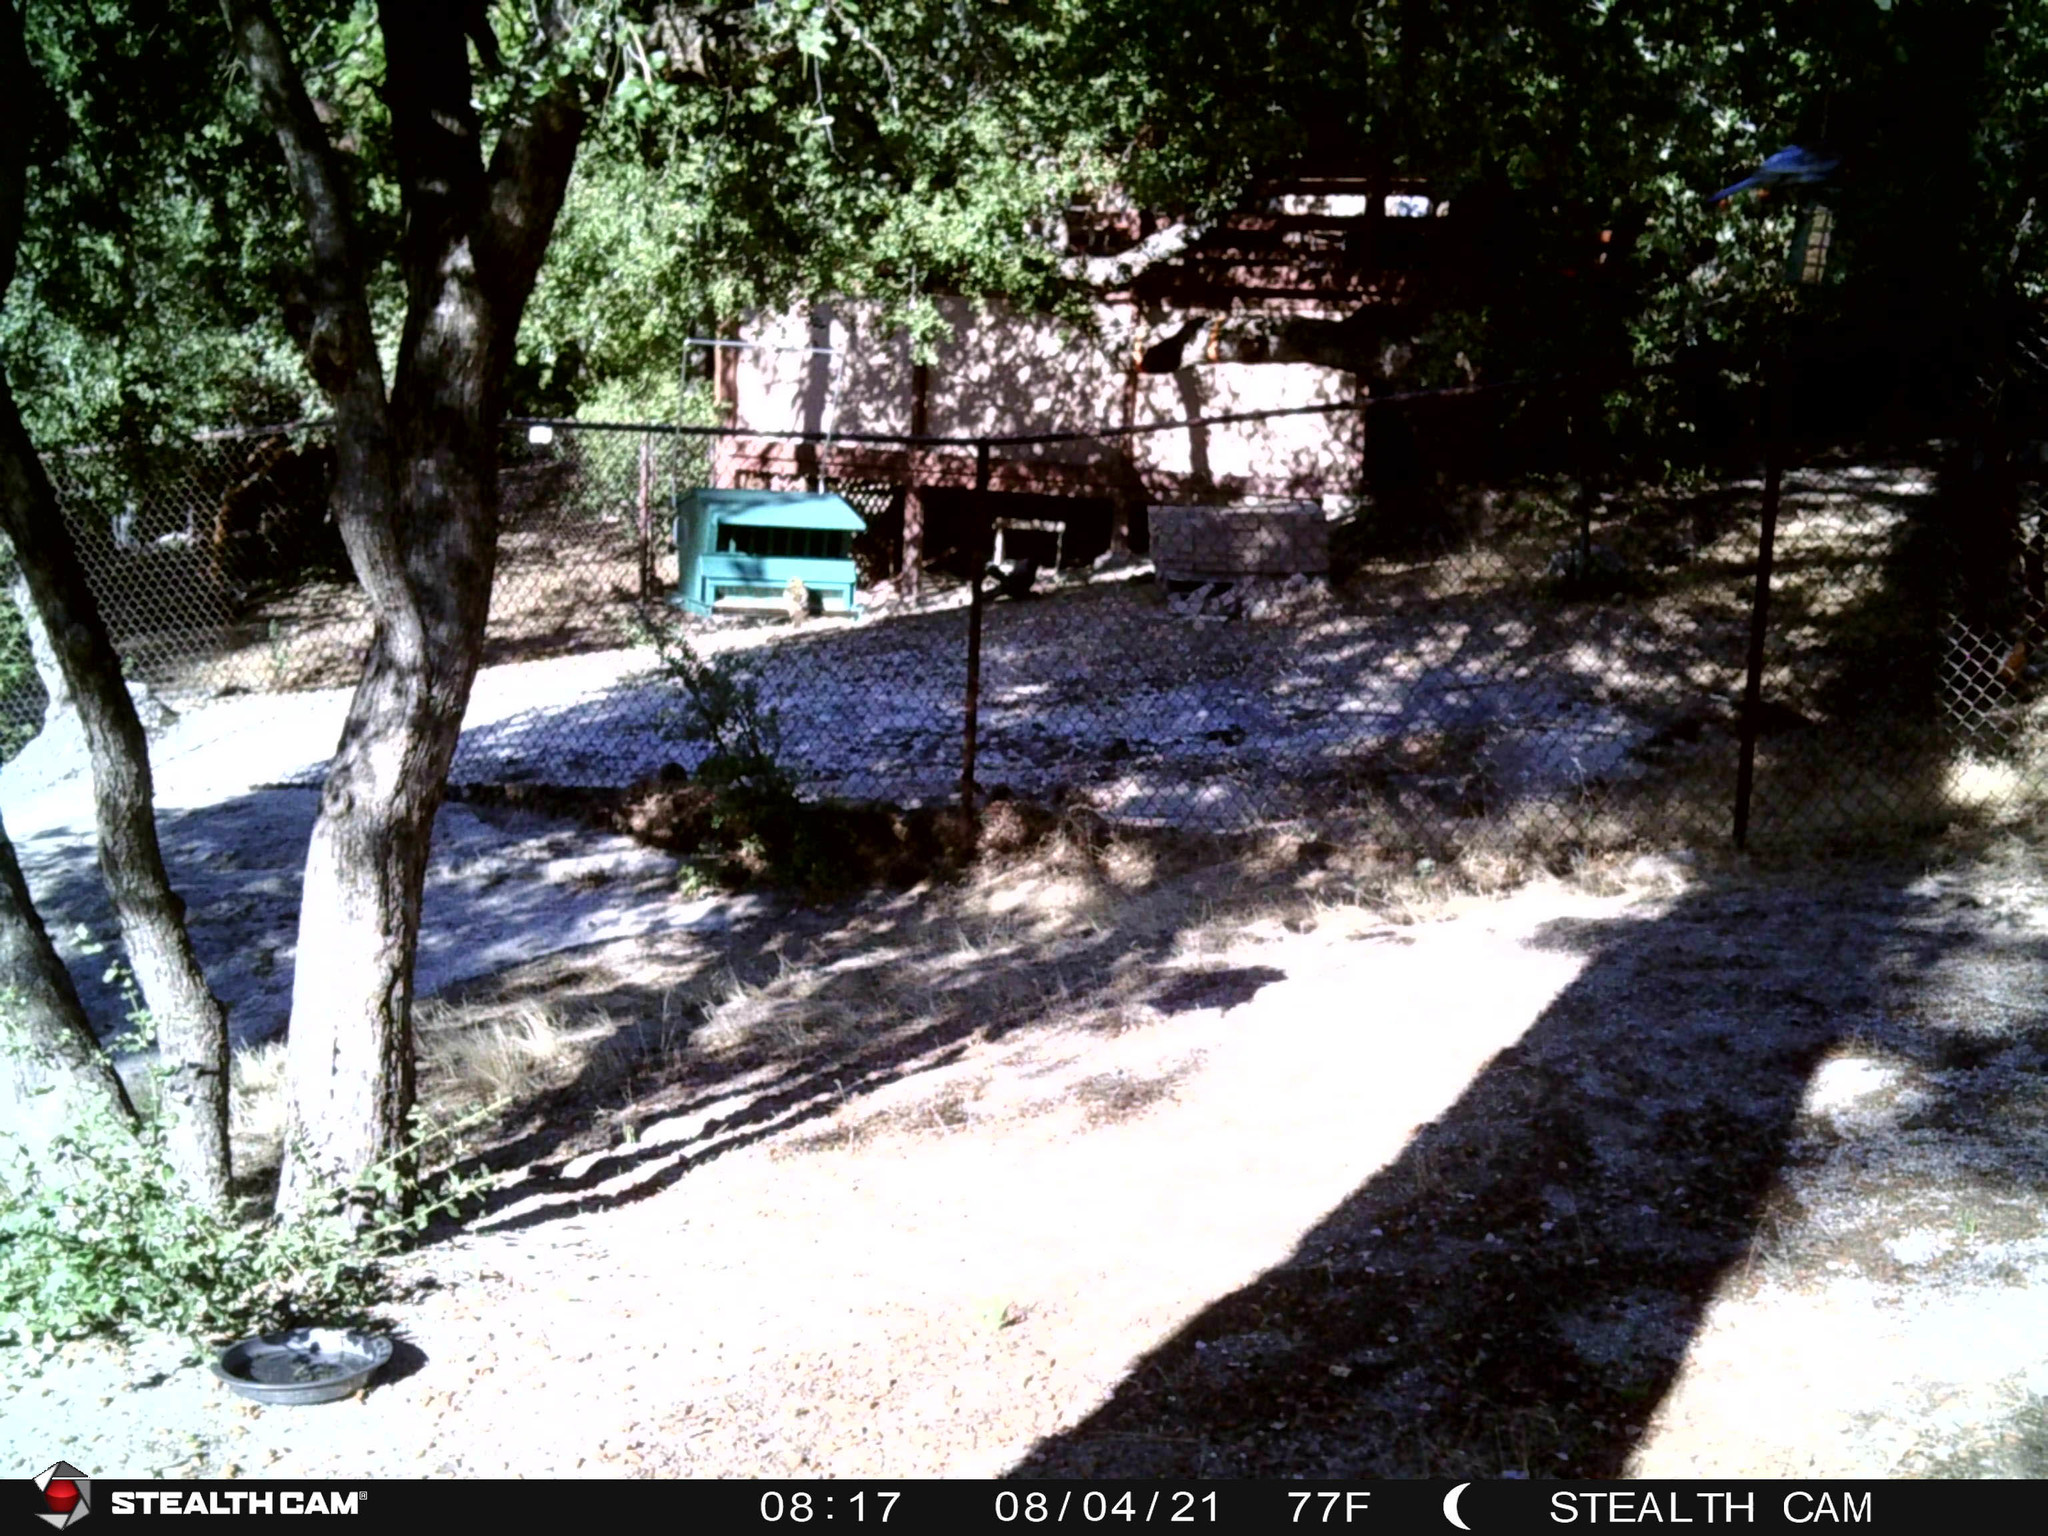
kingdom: Animalia
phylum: Chordata
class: Aves
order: Passeriformes
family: Corvidae
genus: Cyanocitta
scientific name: Cyanocitta stelleri
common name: Steller's jay
